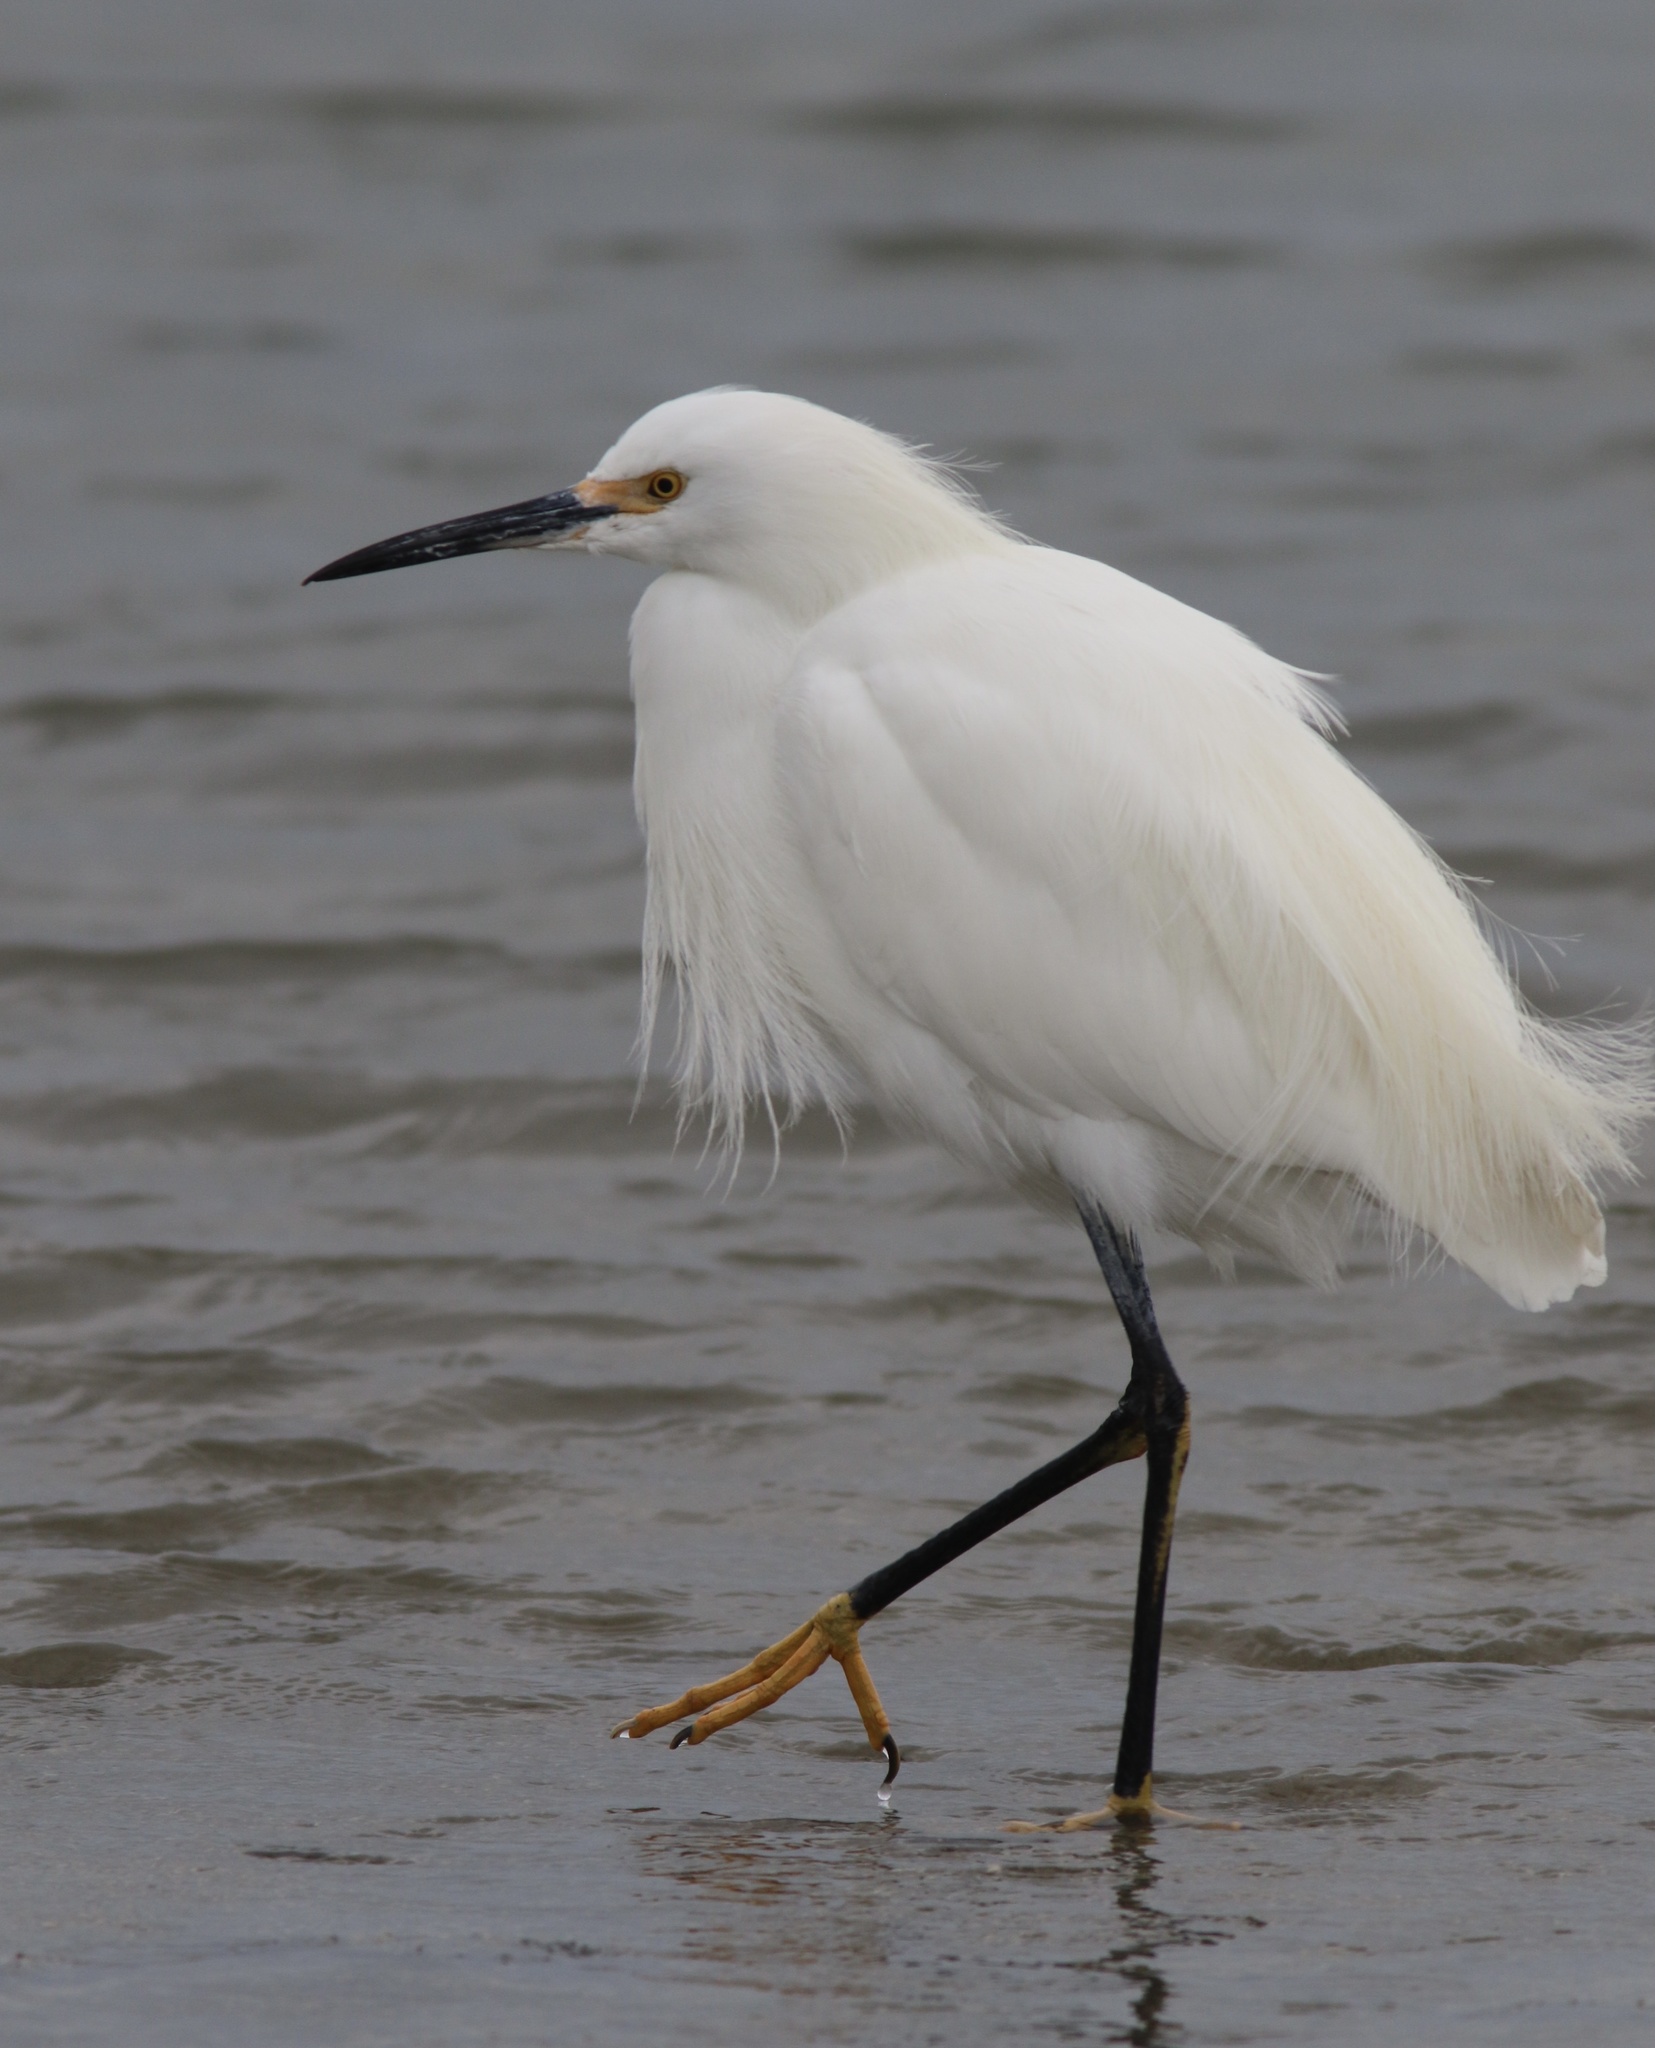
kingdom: Animalia
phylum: Chordata
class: Aves
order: Pelecaniformes
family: Ardeidae
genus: Egretta
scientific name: Egretta thula
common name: Snowy egret
